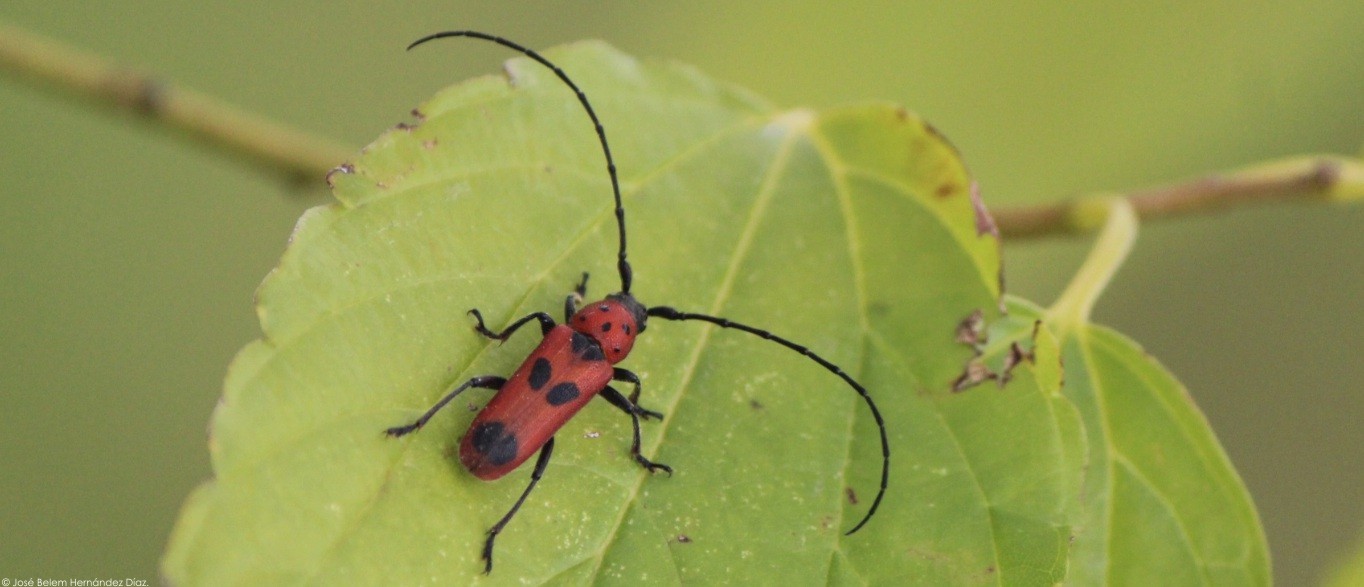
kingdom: Animalia
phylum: Arthropoda
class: Insecta
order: Coleoptera
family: Cerambycidae
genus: Tylosis
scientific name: Tylosis puncticollis
